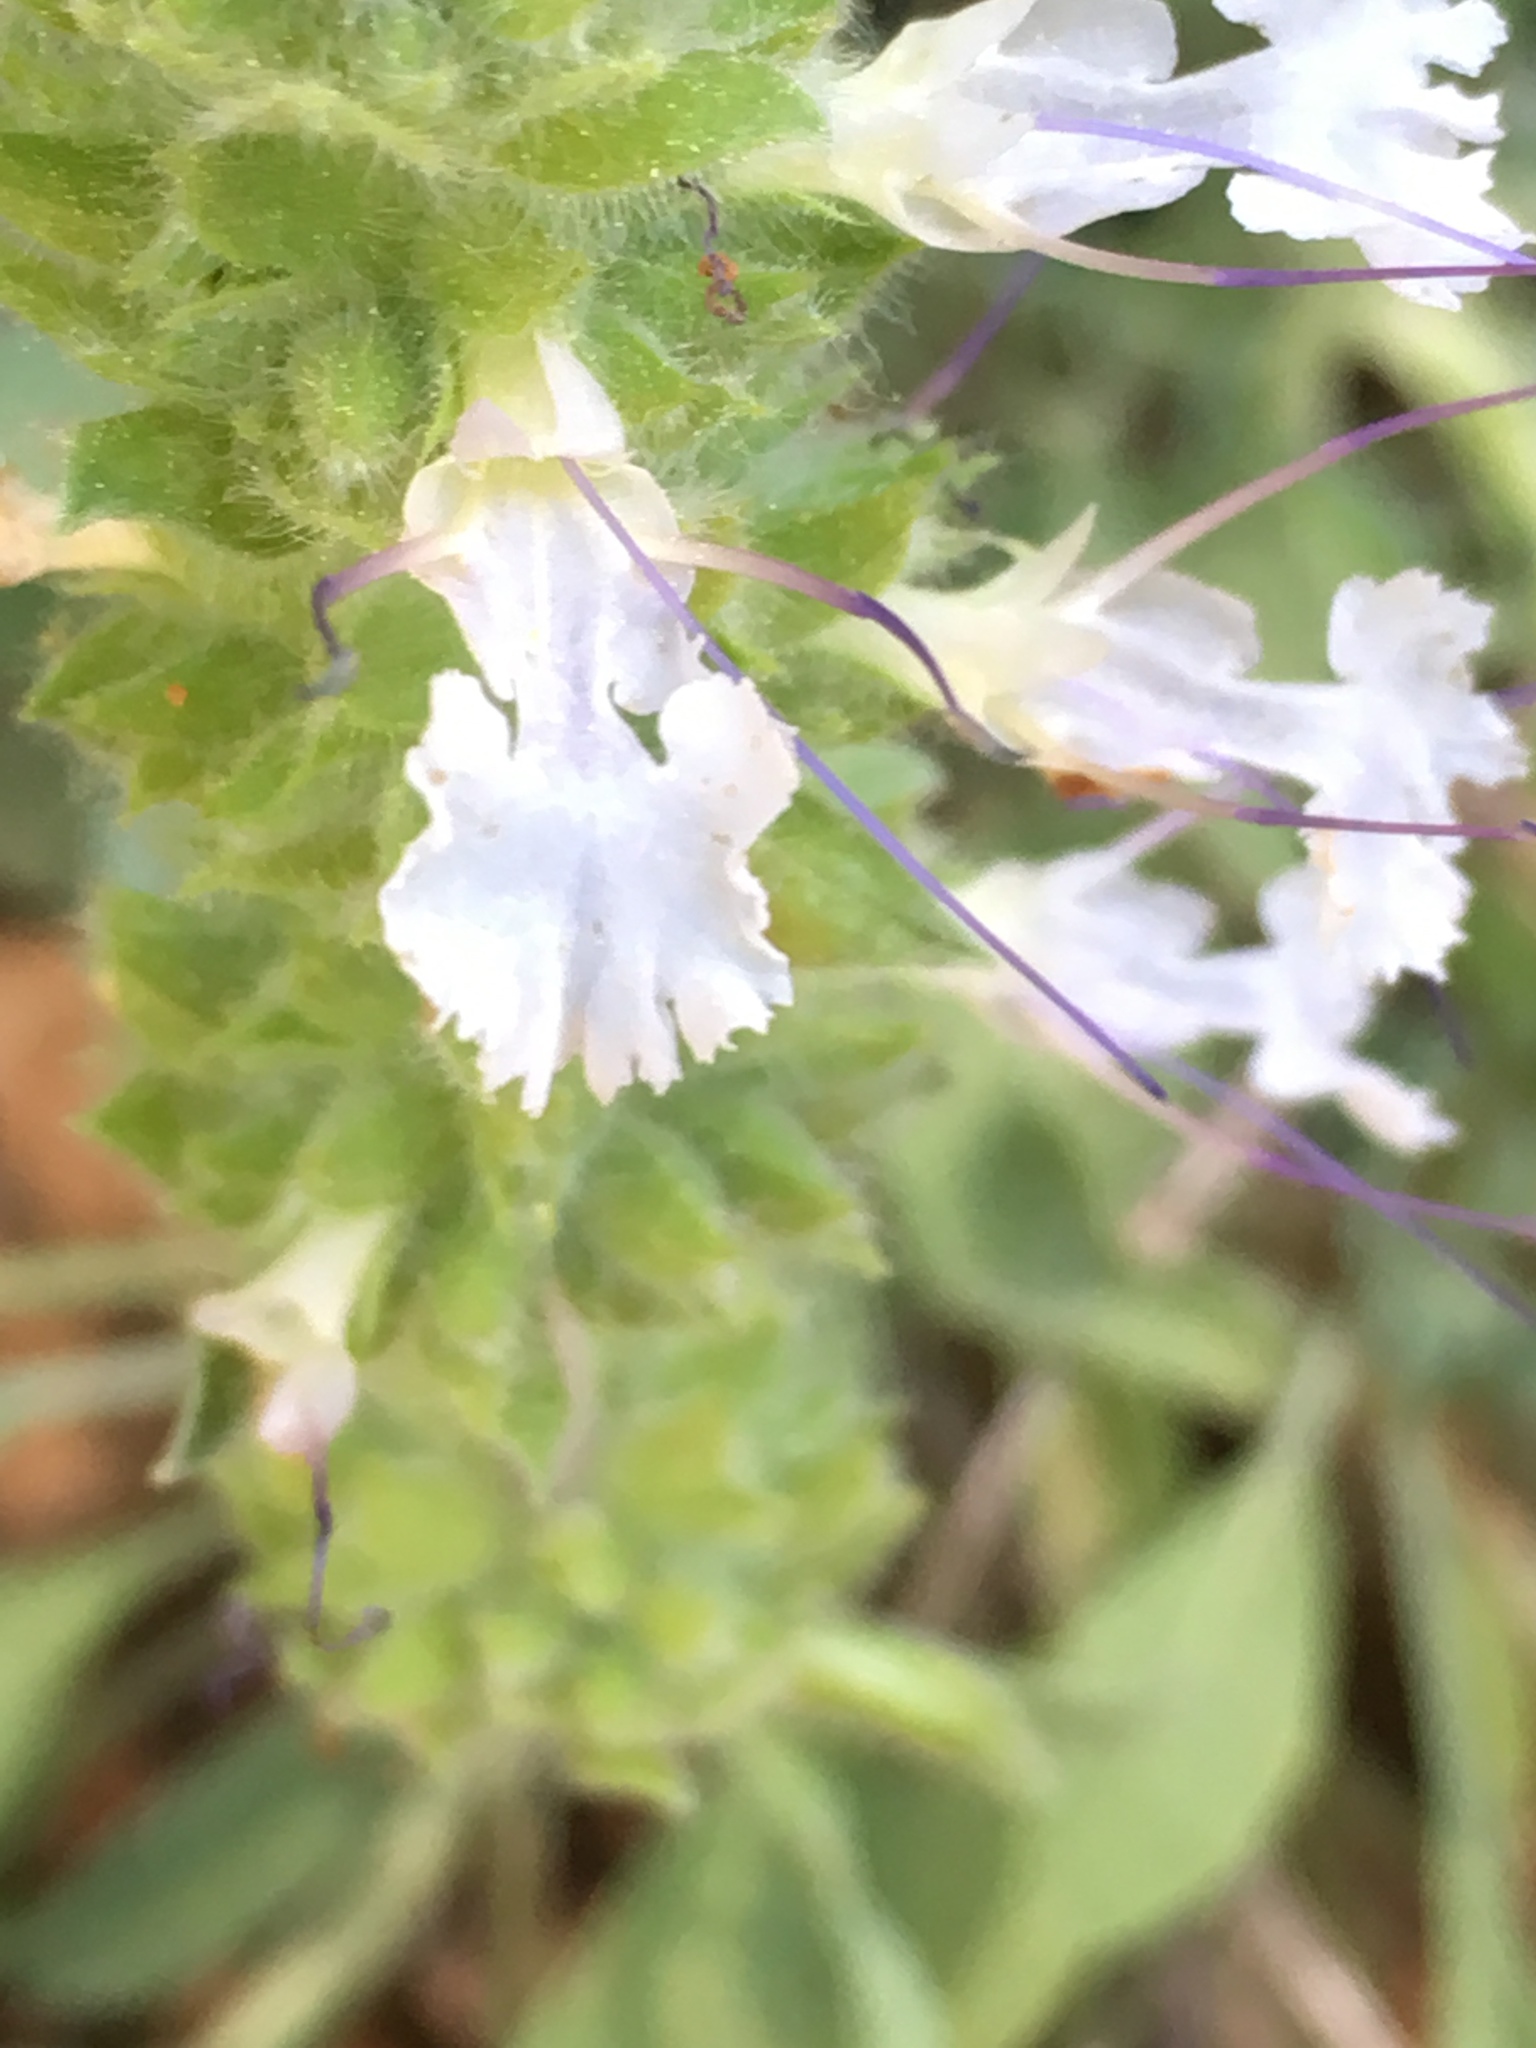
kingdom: Plantae
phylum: Tracheophyta
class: Magnoliopsida
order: Lamiales
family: Lamiaceae
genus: Salvia
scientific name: Salvia sonomensis
